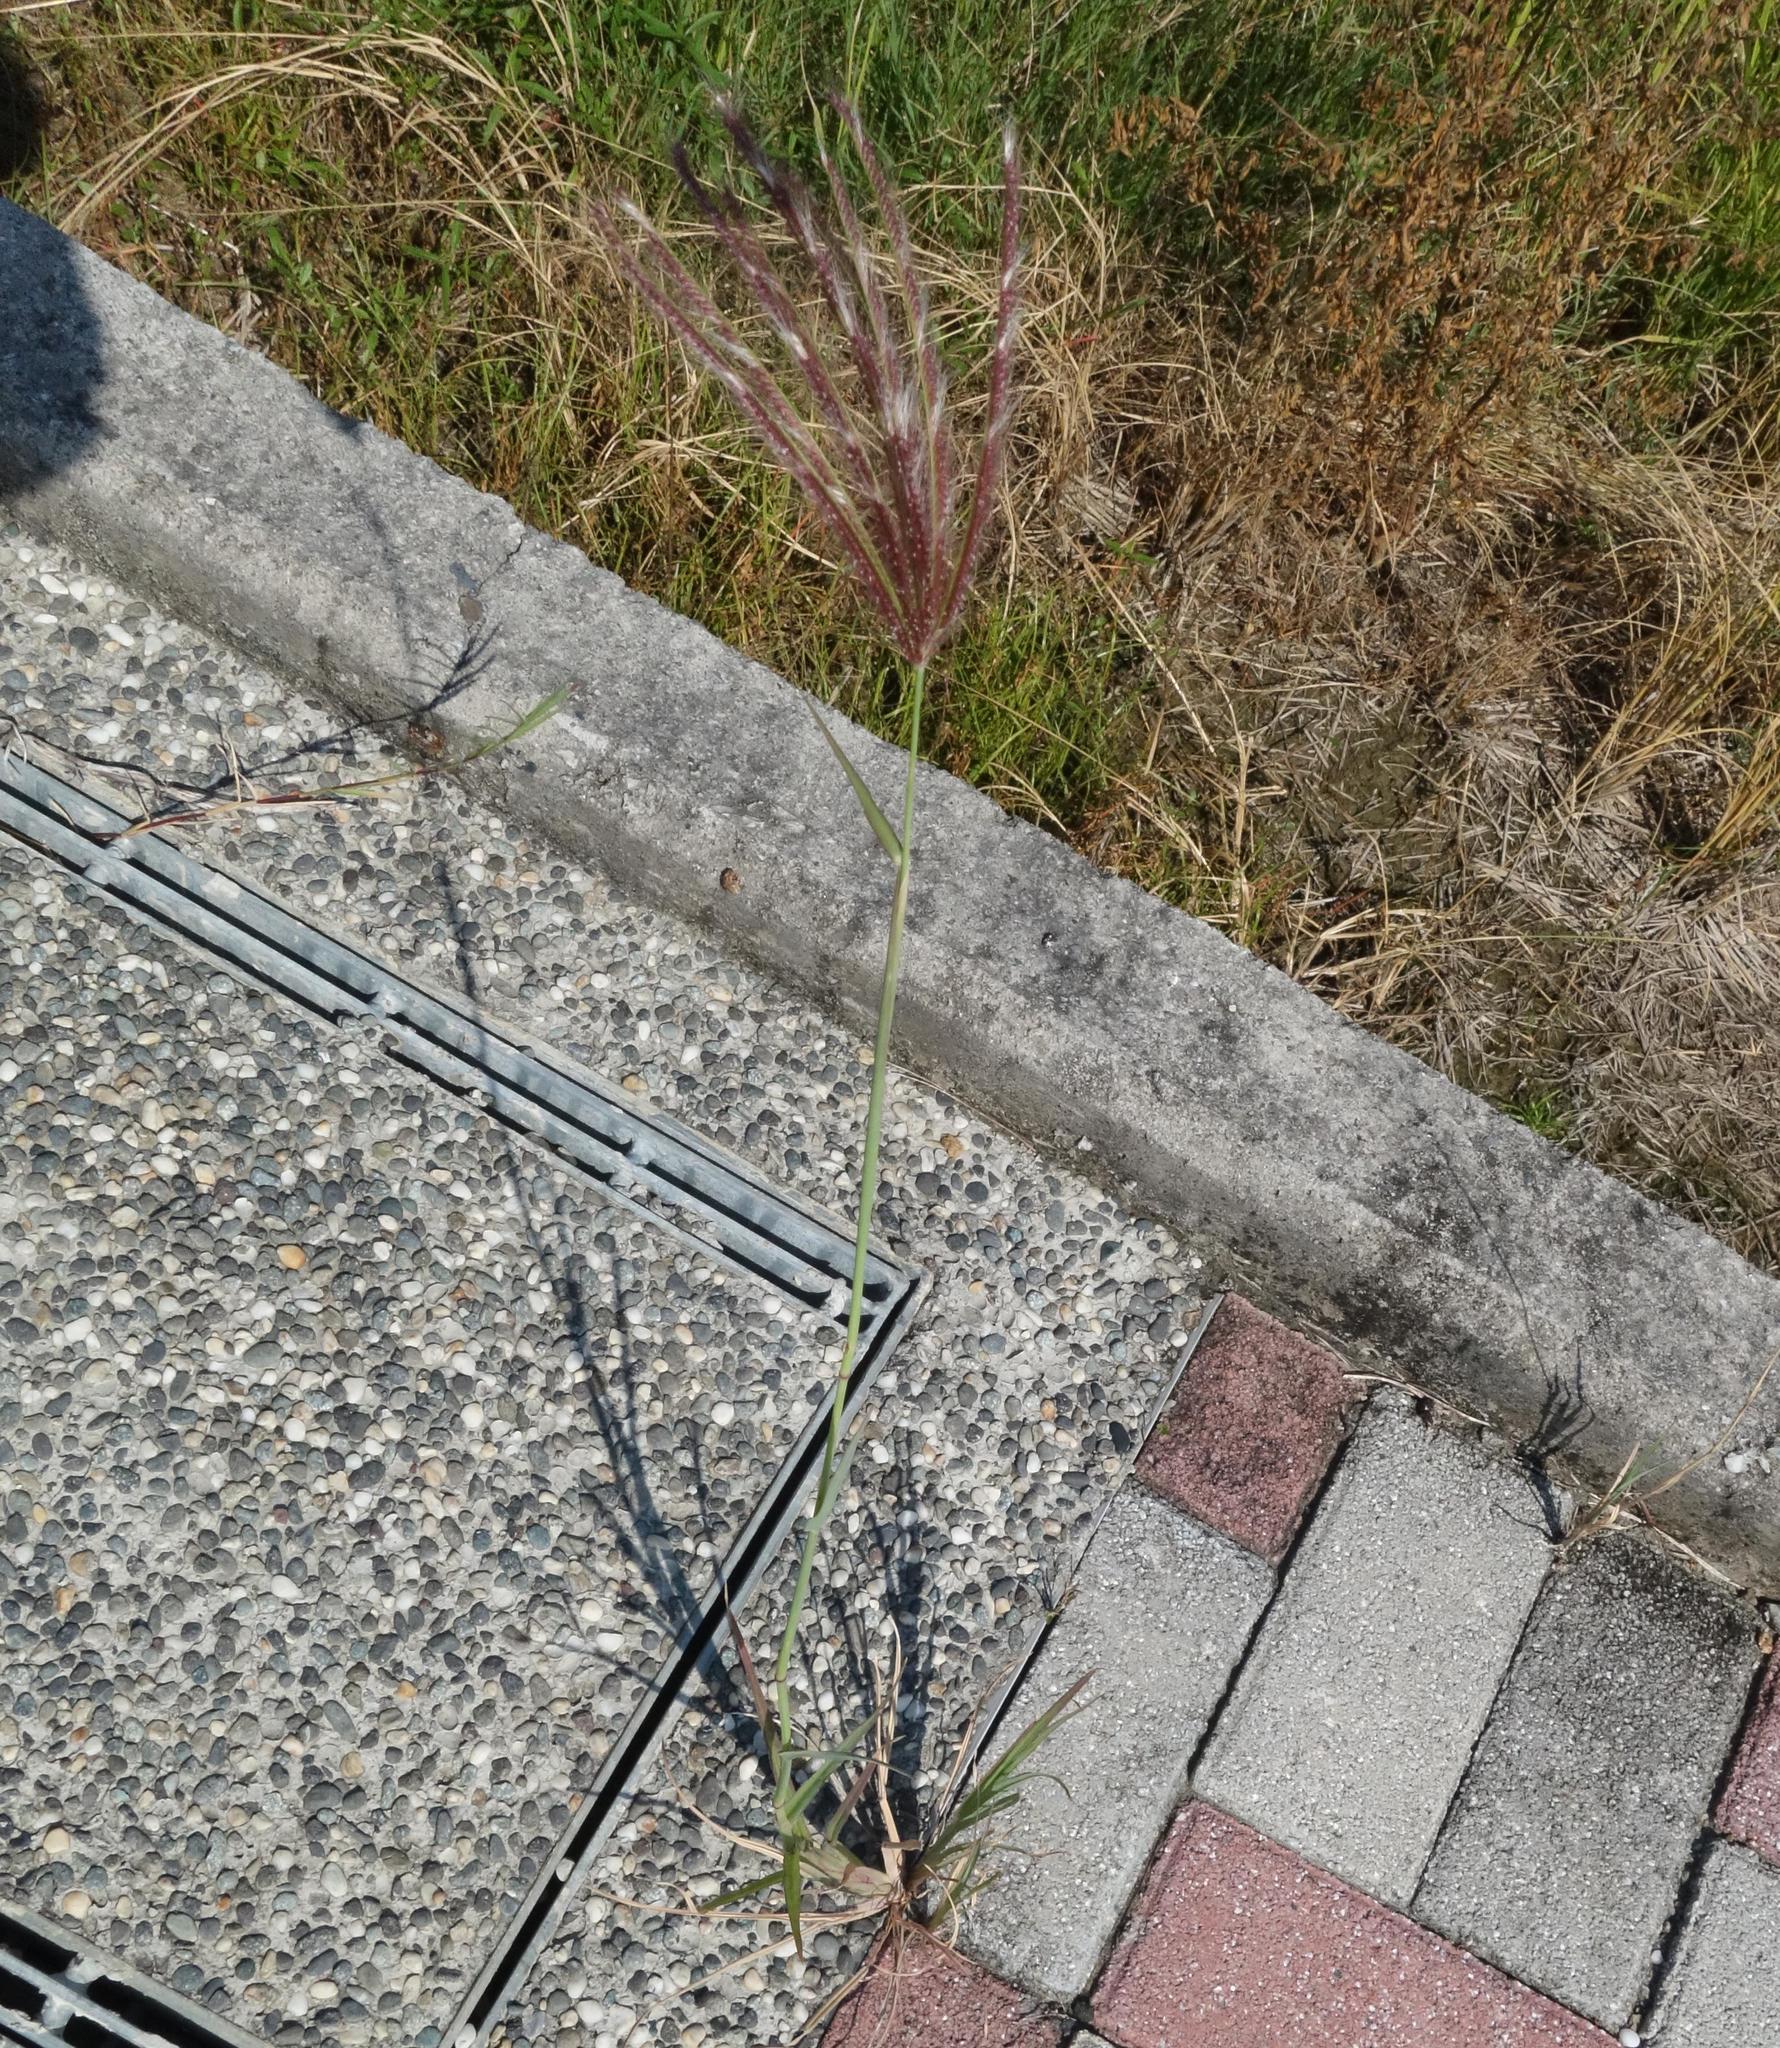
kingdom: Plantae
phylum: Tracheophyta
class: Liliopsida
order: Poales
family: Poaceae
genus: Chloris
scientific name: Chloris barbata
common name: Swollen fingergrass
